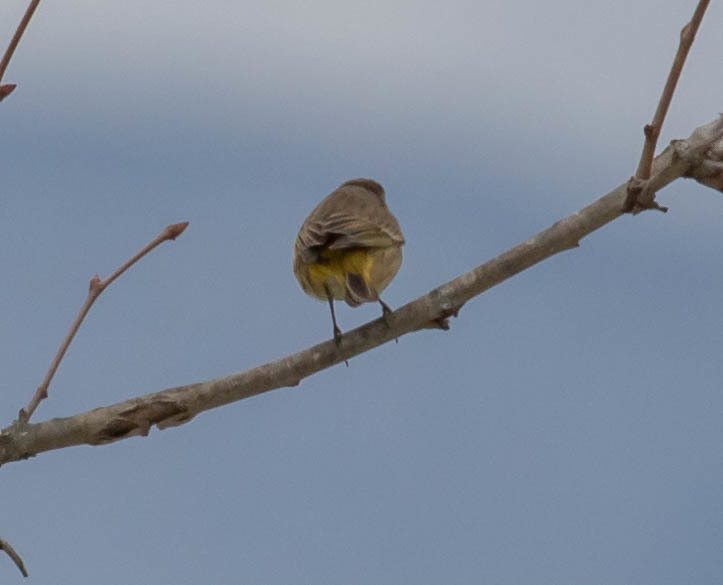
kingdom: Animalia
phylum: Chordata
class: Aves
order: Passeriformes
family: Parulidae
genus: Setophaga
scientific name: Setophaga palmarum
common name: Palm warbler
